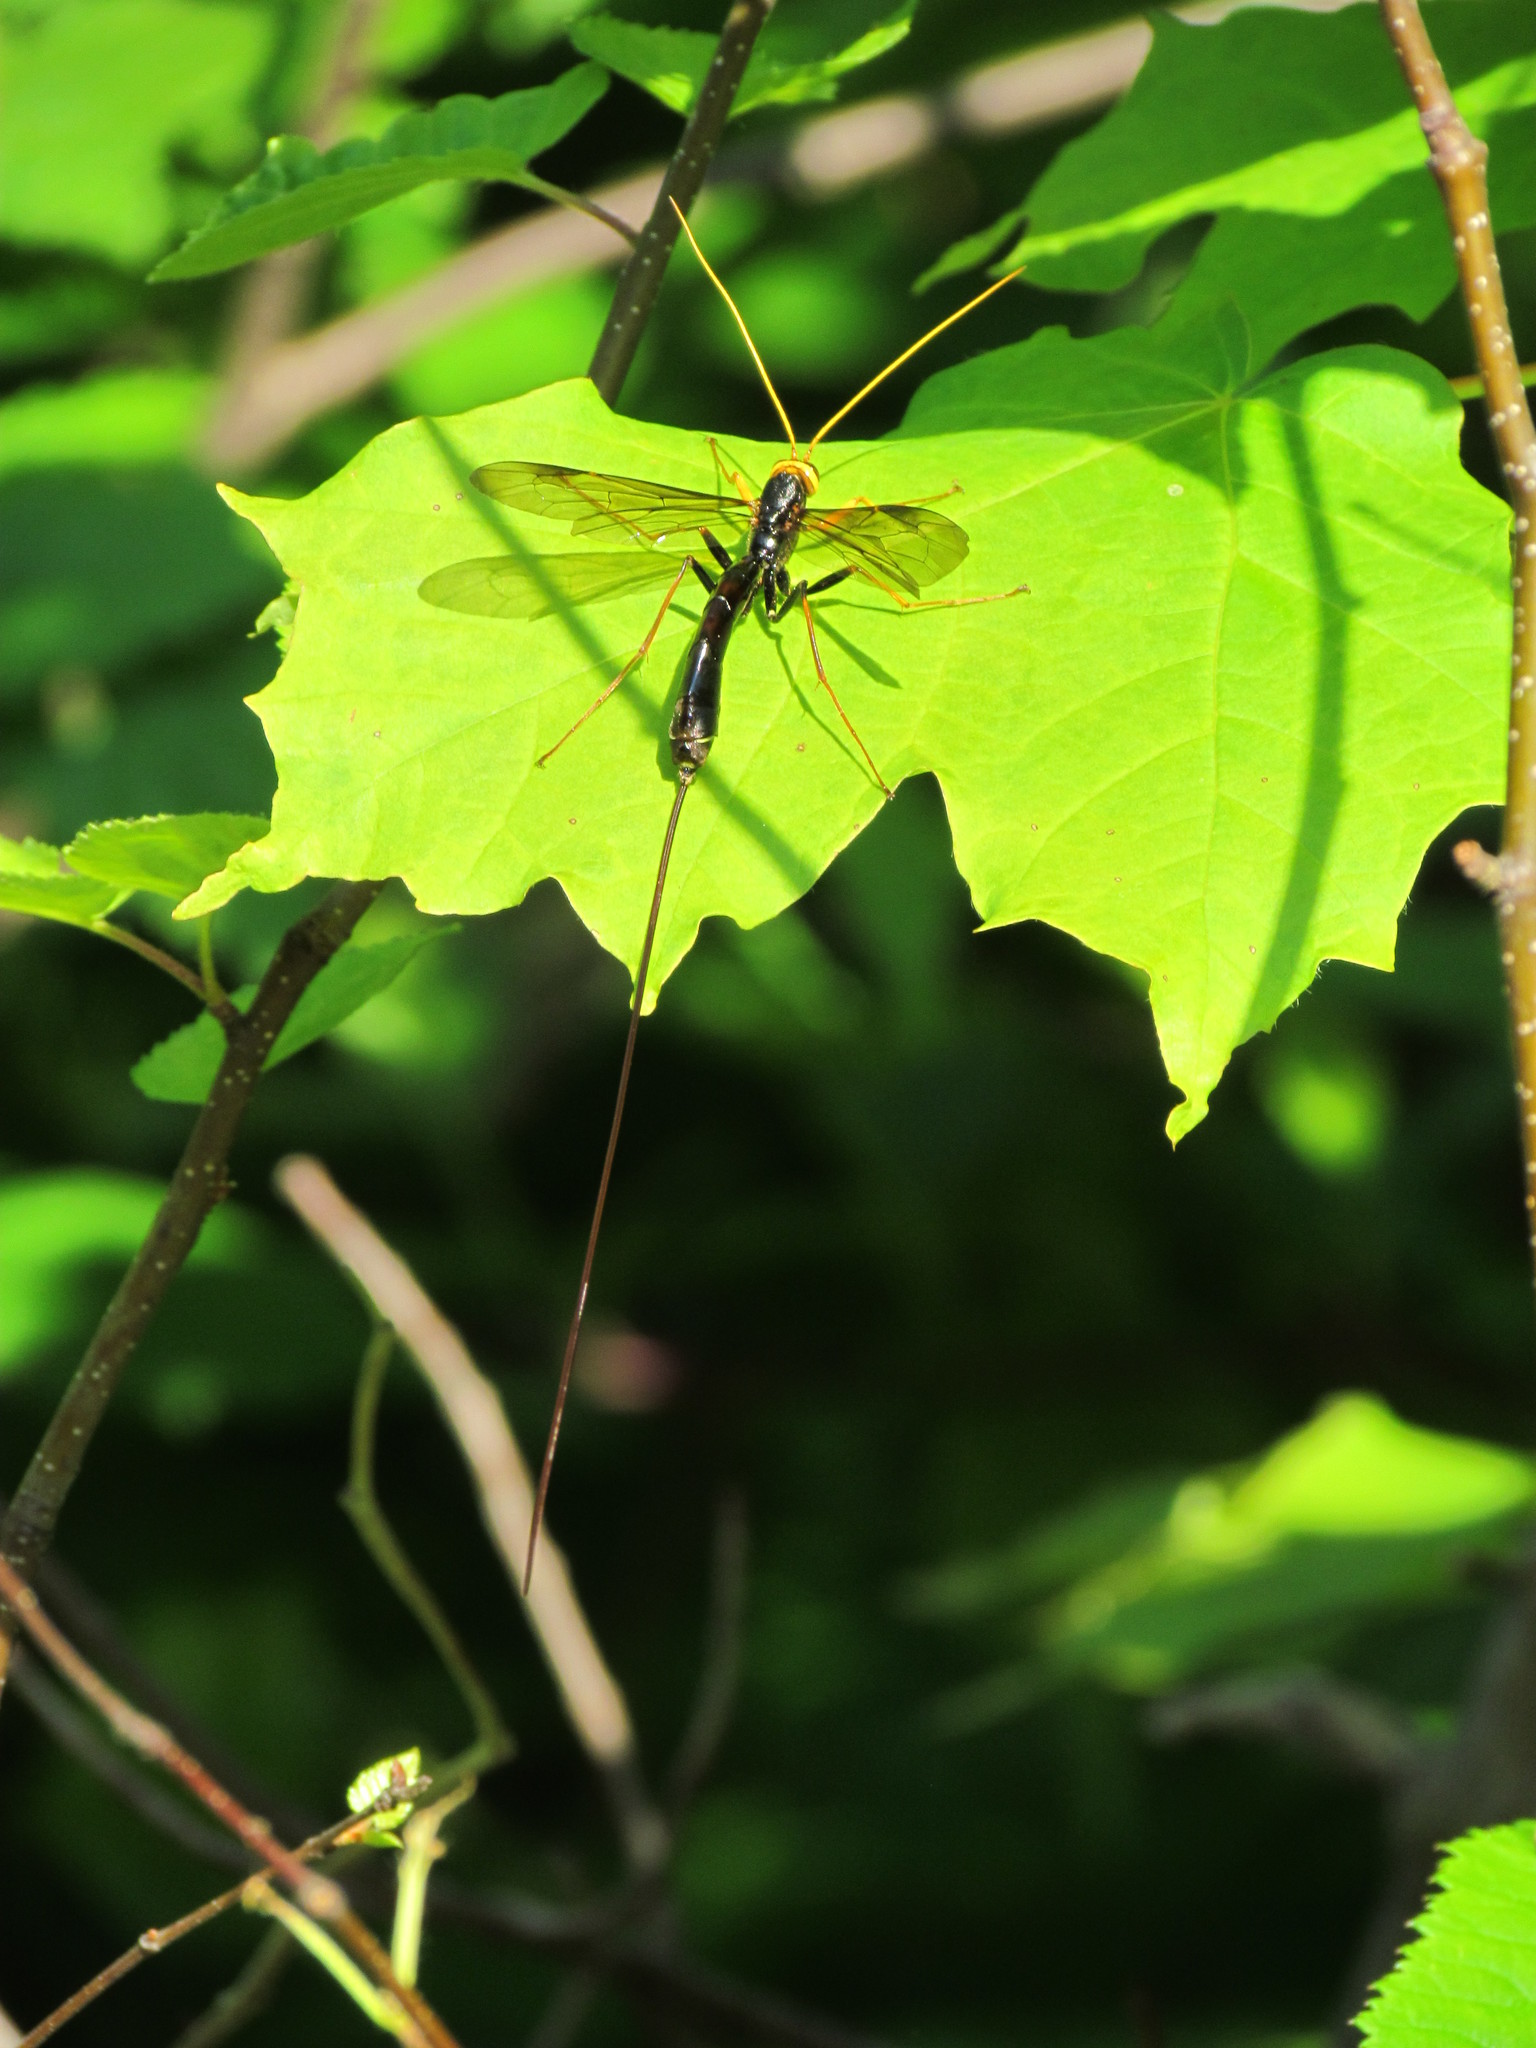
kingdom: Animalia
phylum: Arthropoda
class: Insecta
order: Hymenoptera
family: Ichneumonidae
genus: Megarhyssa
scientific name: Megarhyssa atrata
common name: Black giant ichneumonid wasp
